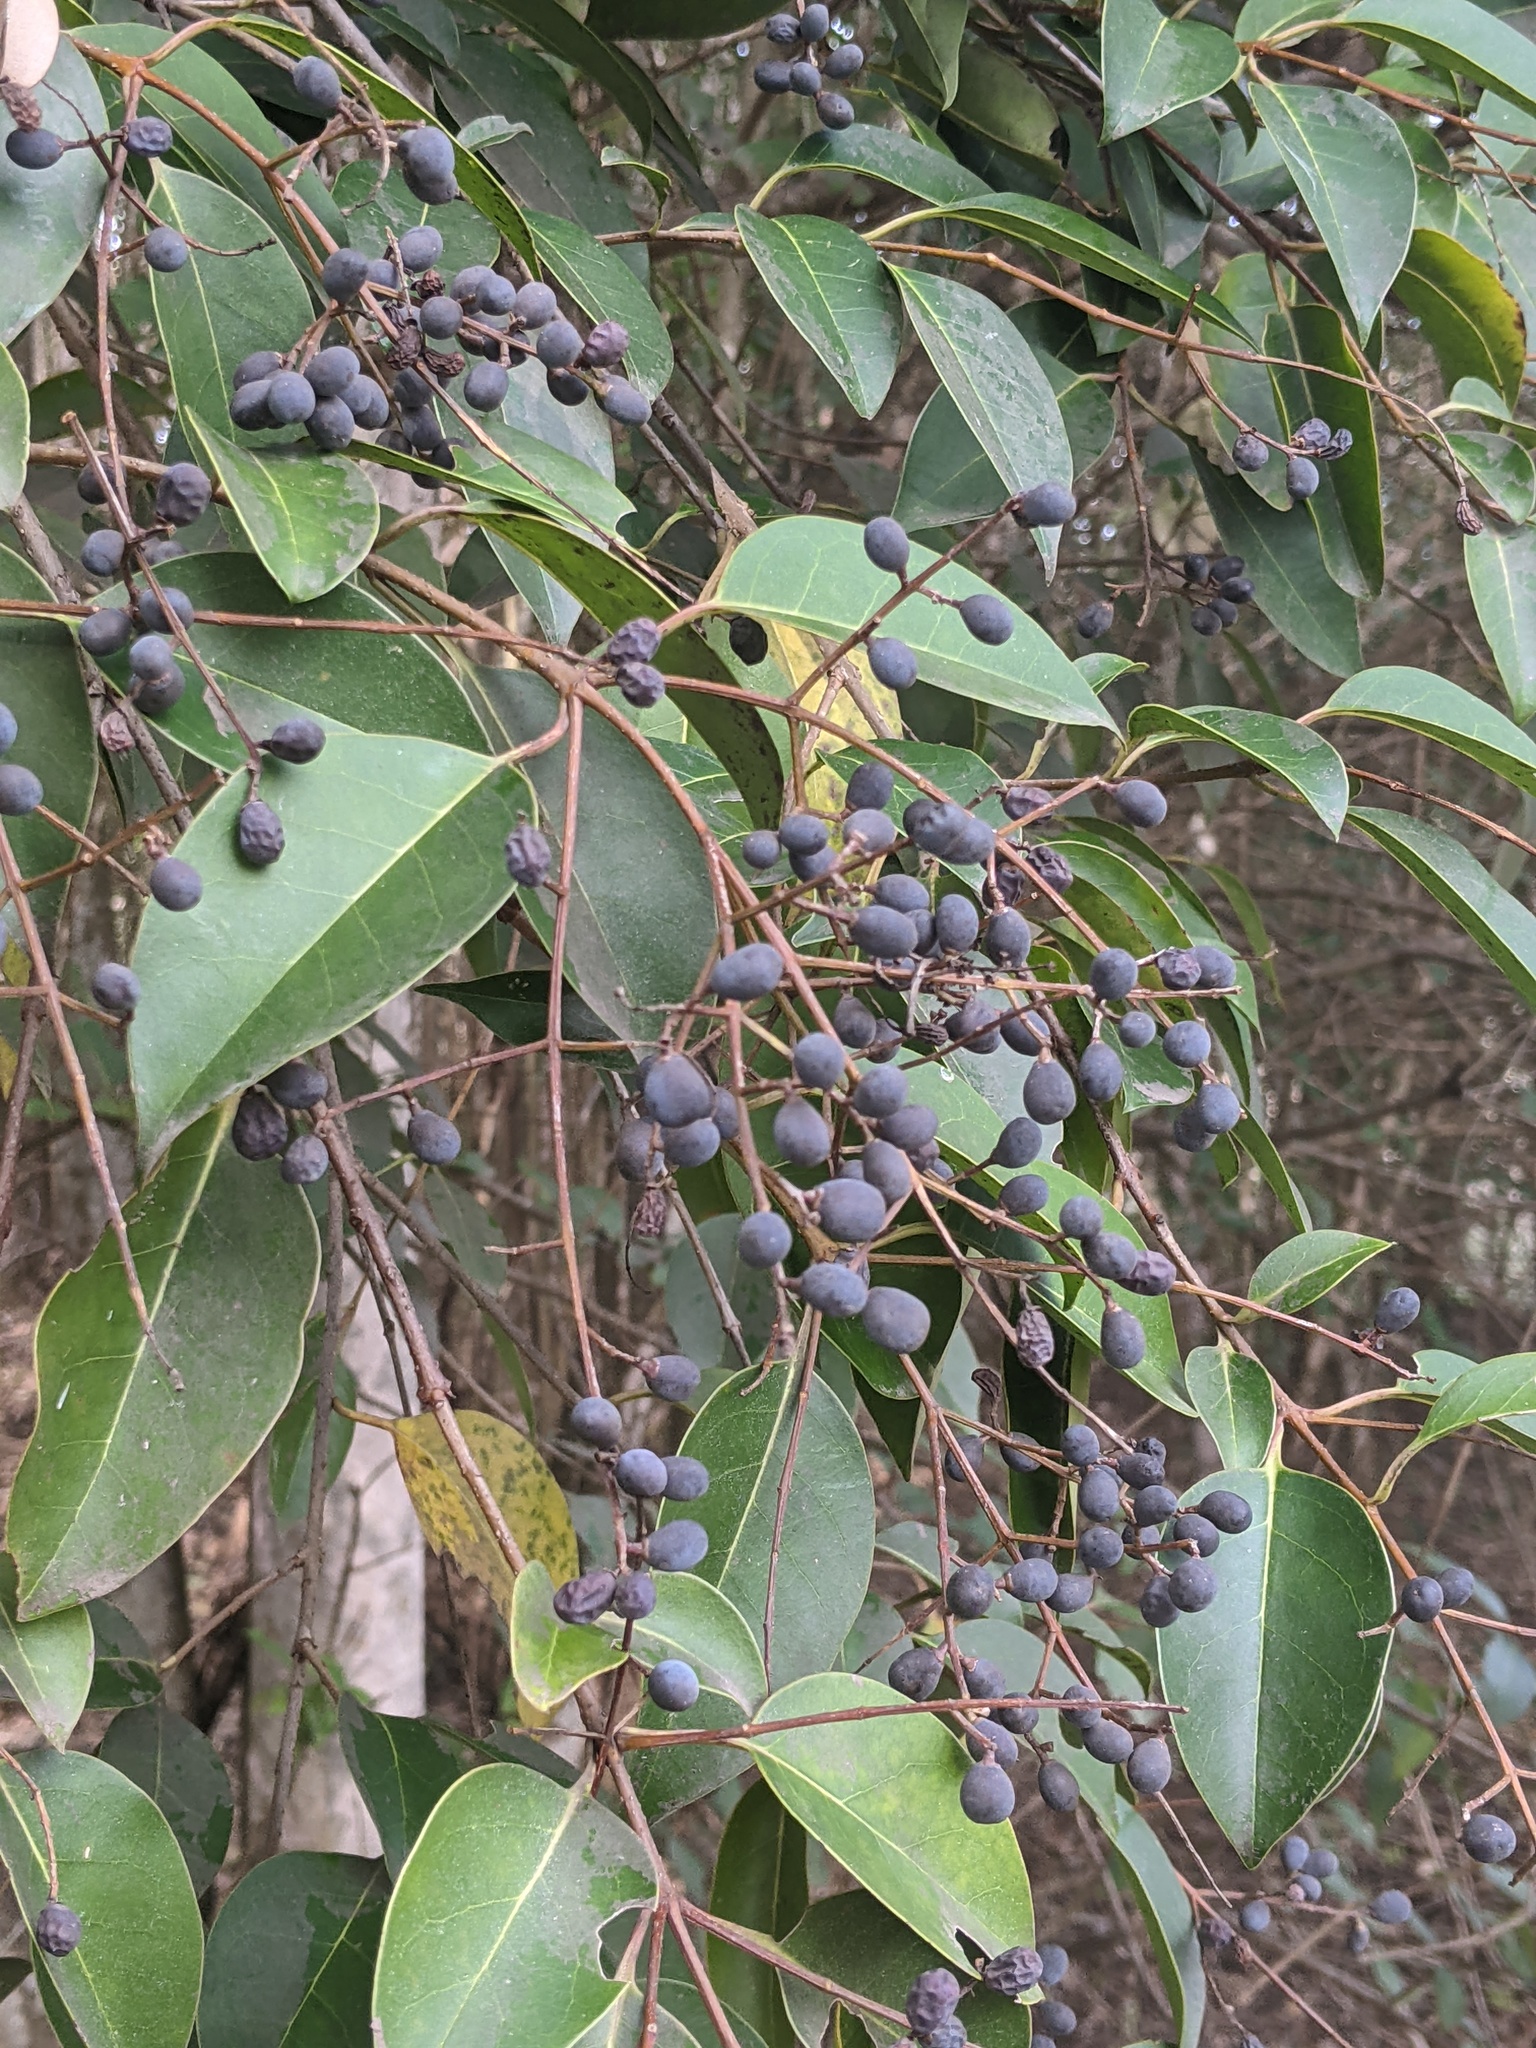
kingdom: Plantae
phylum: Tracheophyta
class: Magnoliopsida
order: Lamiales
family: Oleaceae
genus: Ligustrum
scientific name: Ligustrum lucidum
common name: Glossy privet
